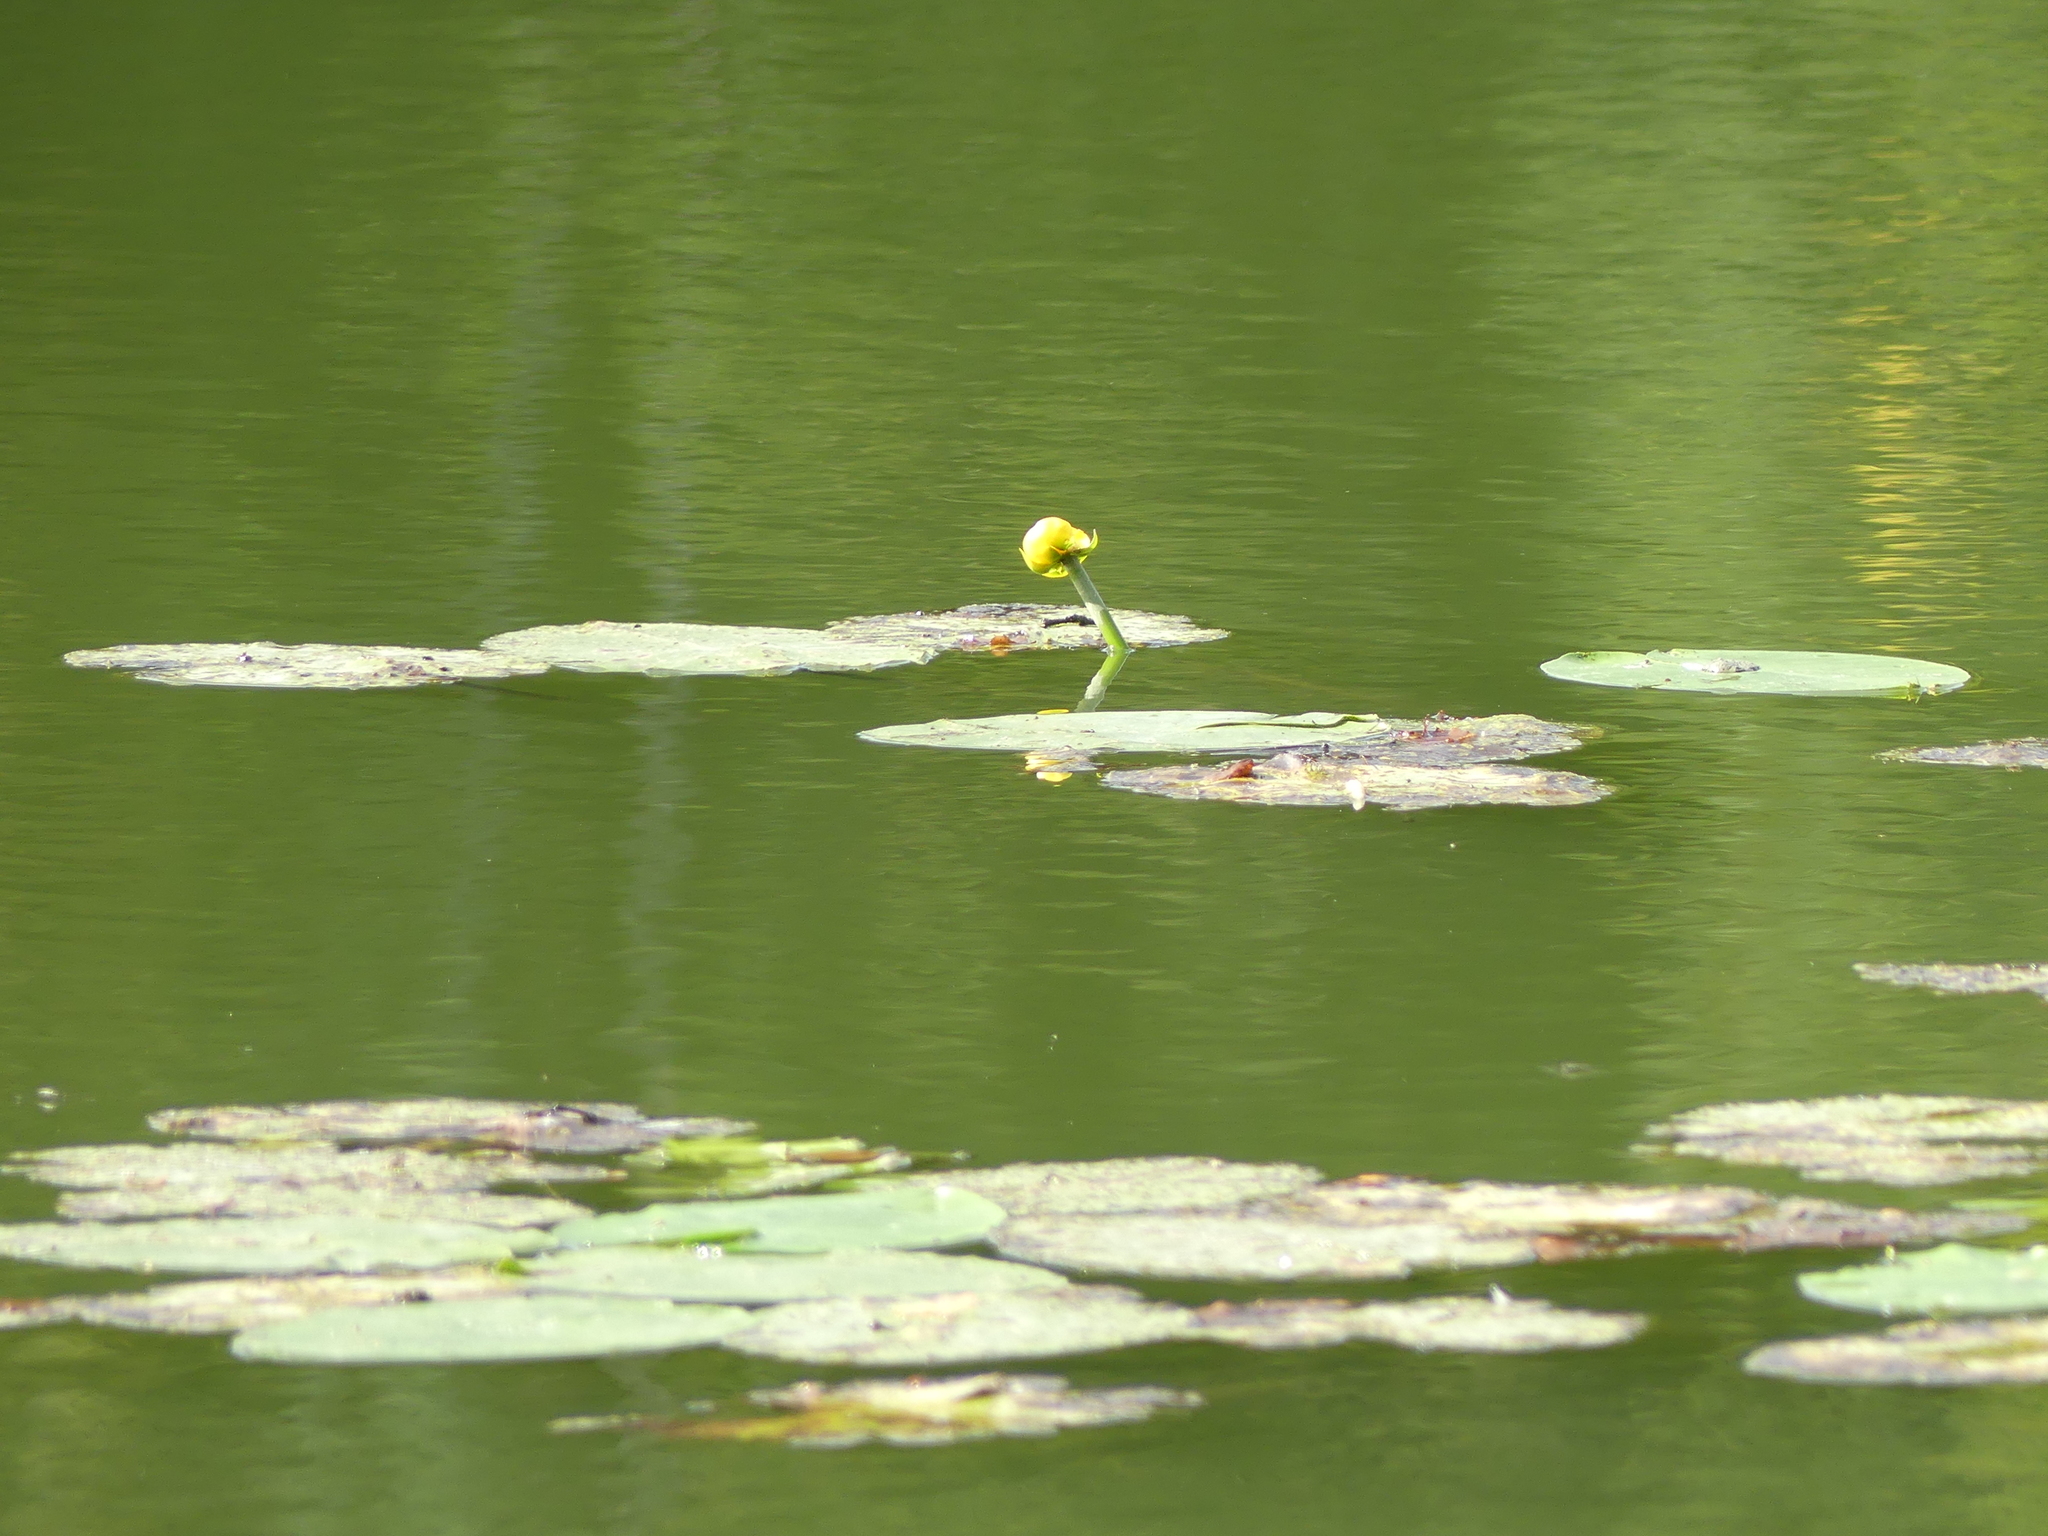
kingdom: Plantae
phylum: Tracheophyta
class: Magnoliopsida
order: Nymphaeales
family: Nymphaeaceae
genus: Nuphar
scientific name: Nuphar lutea
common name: Yellow water-lily
